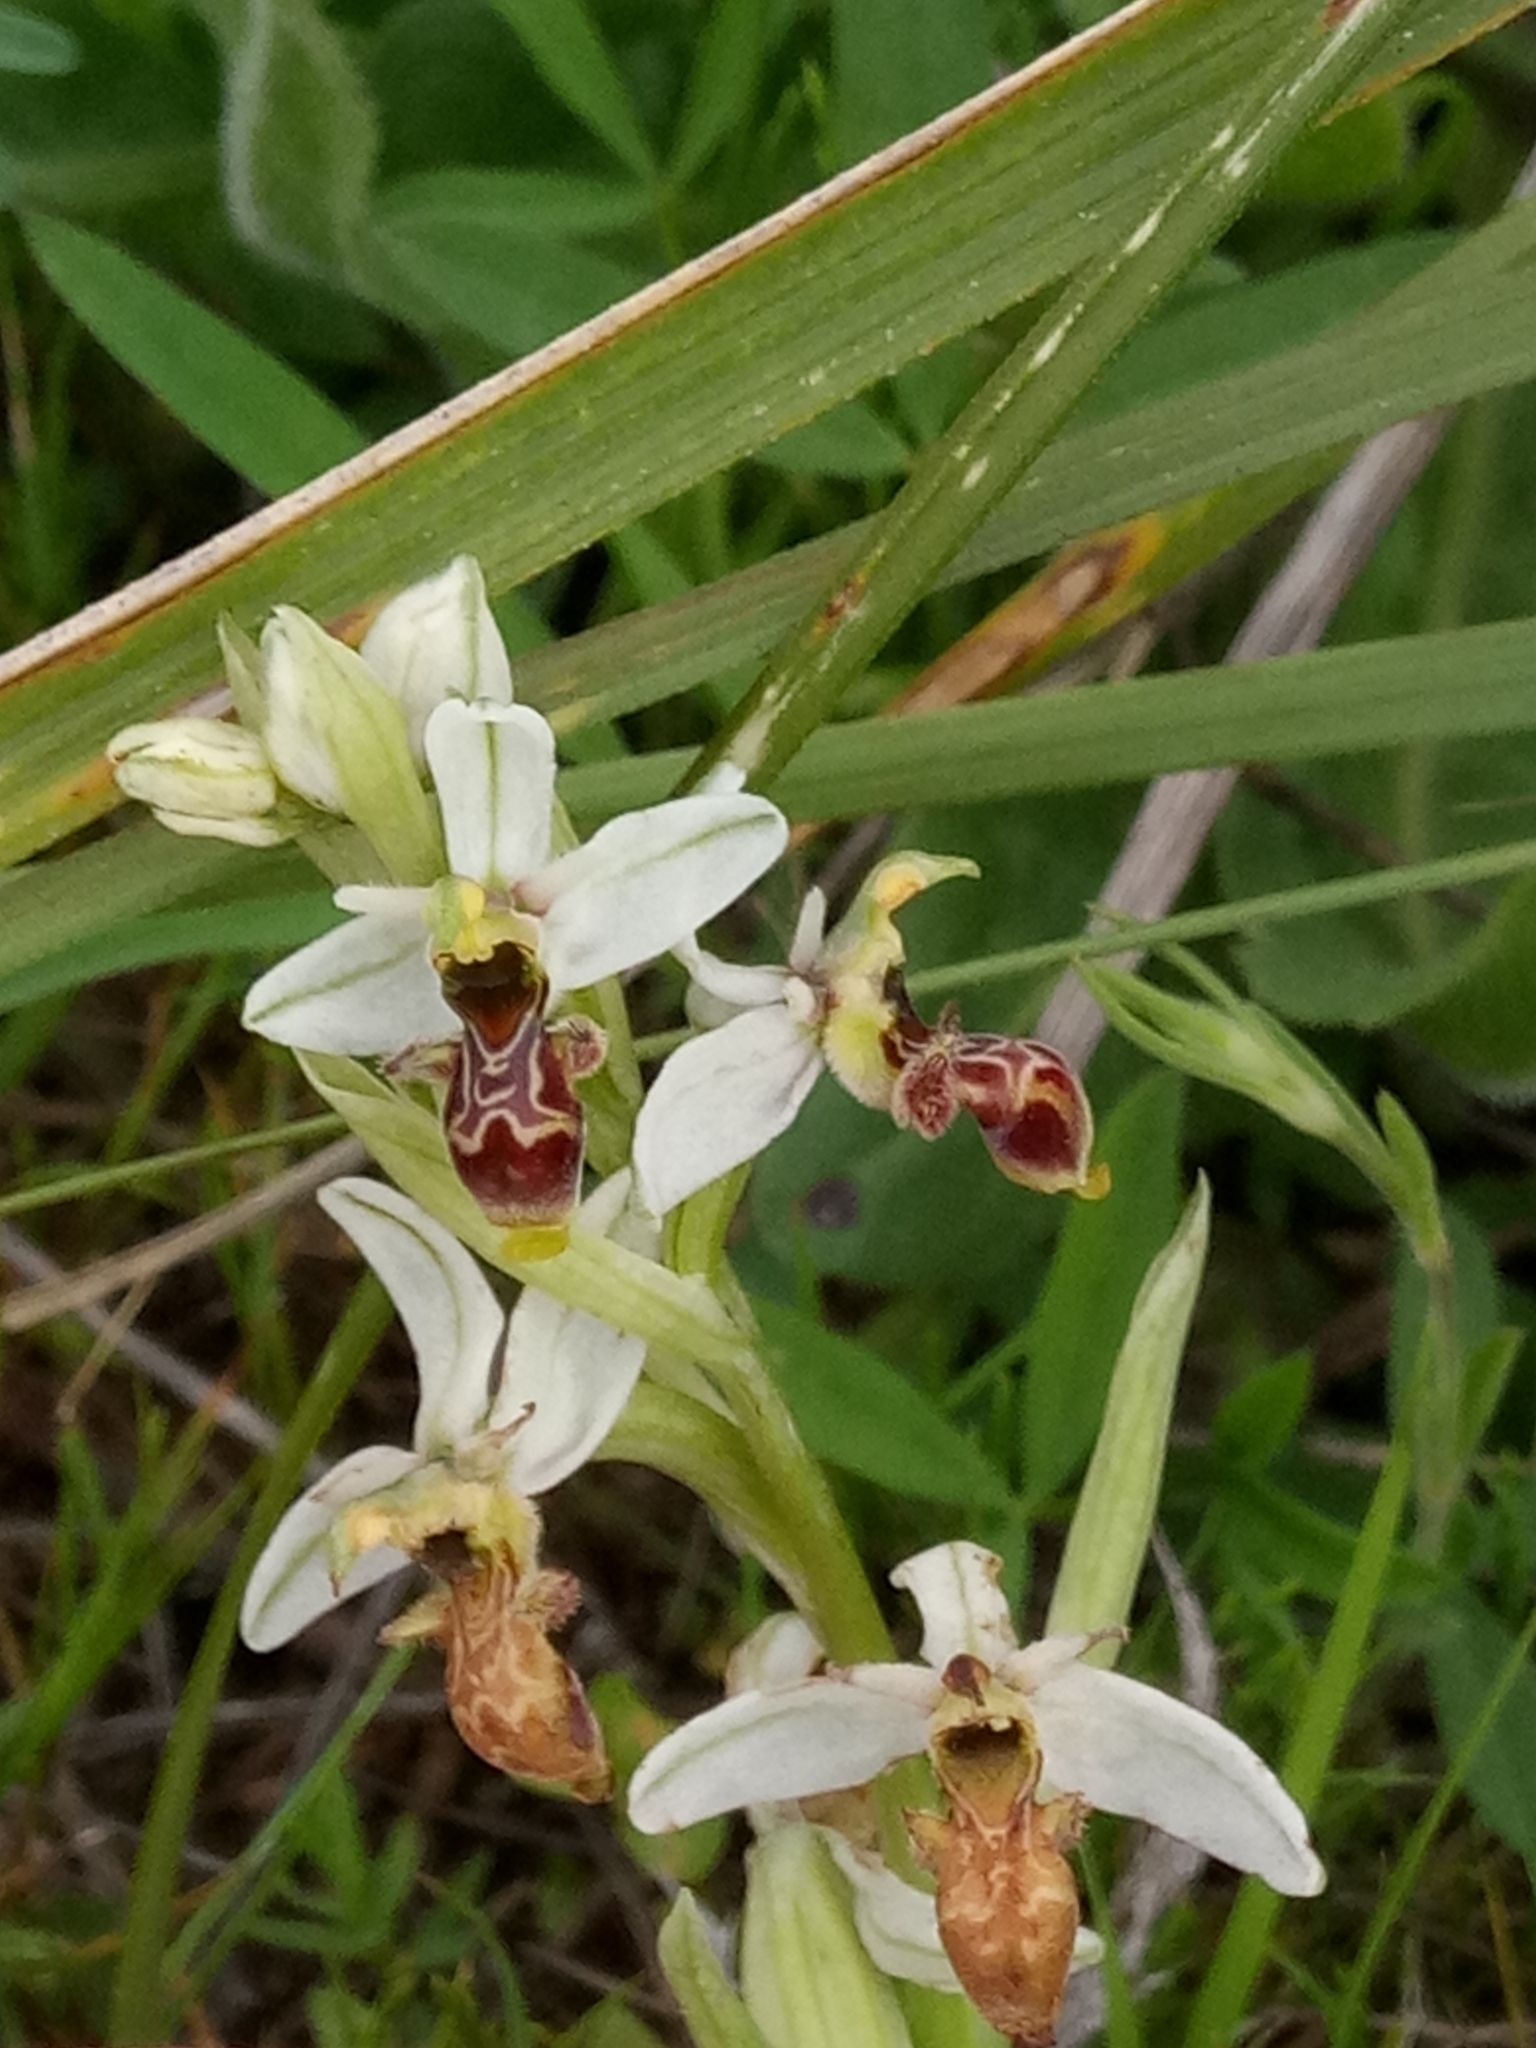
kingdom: Plantae
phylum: Tracheophyta
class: Liliopsida
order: Asparagales
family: Orchidaceae
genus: Ophrys
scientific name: Ophrys scolopax
